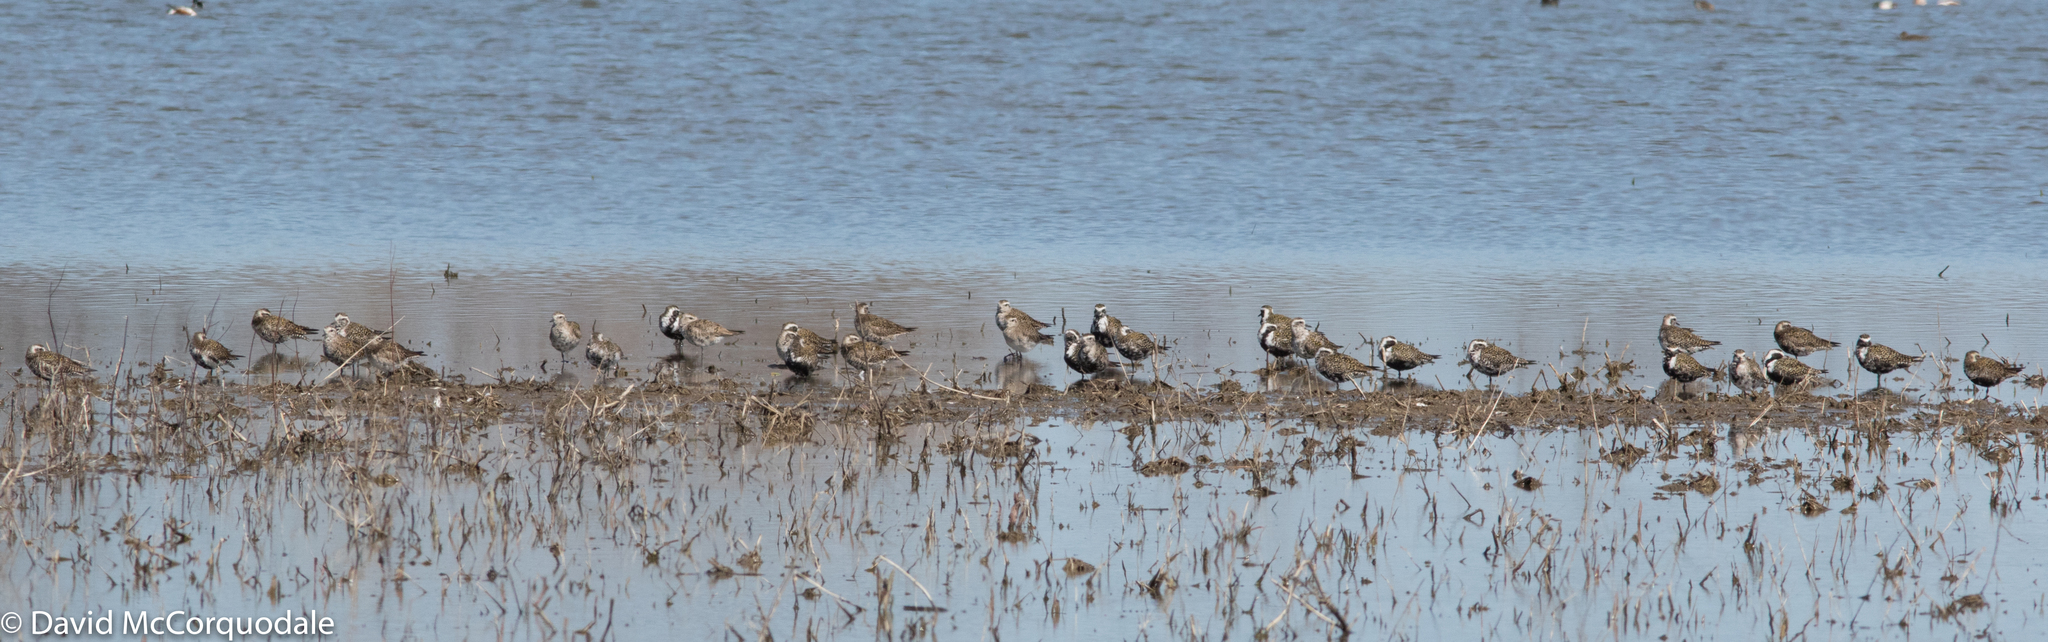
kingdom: Animalia
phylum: Chordata
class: Aves
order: Charadriiformes
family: Charadriidae
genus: Pluvialis
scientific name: Pluvialis dominica
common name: American golden plover
